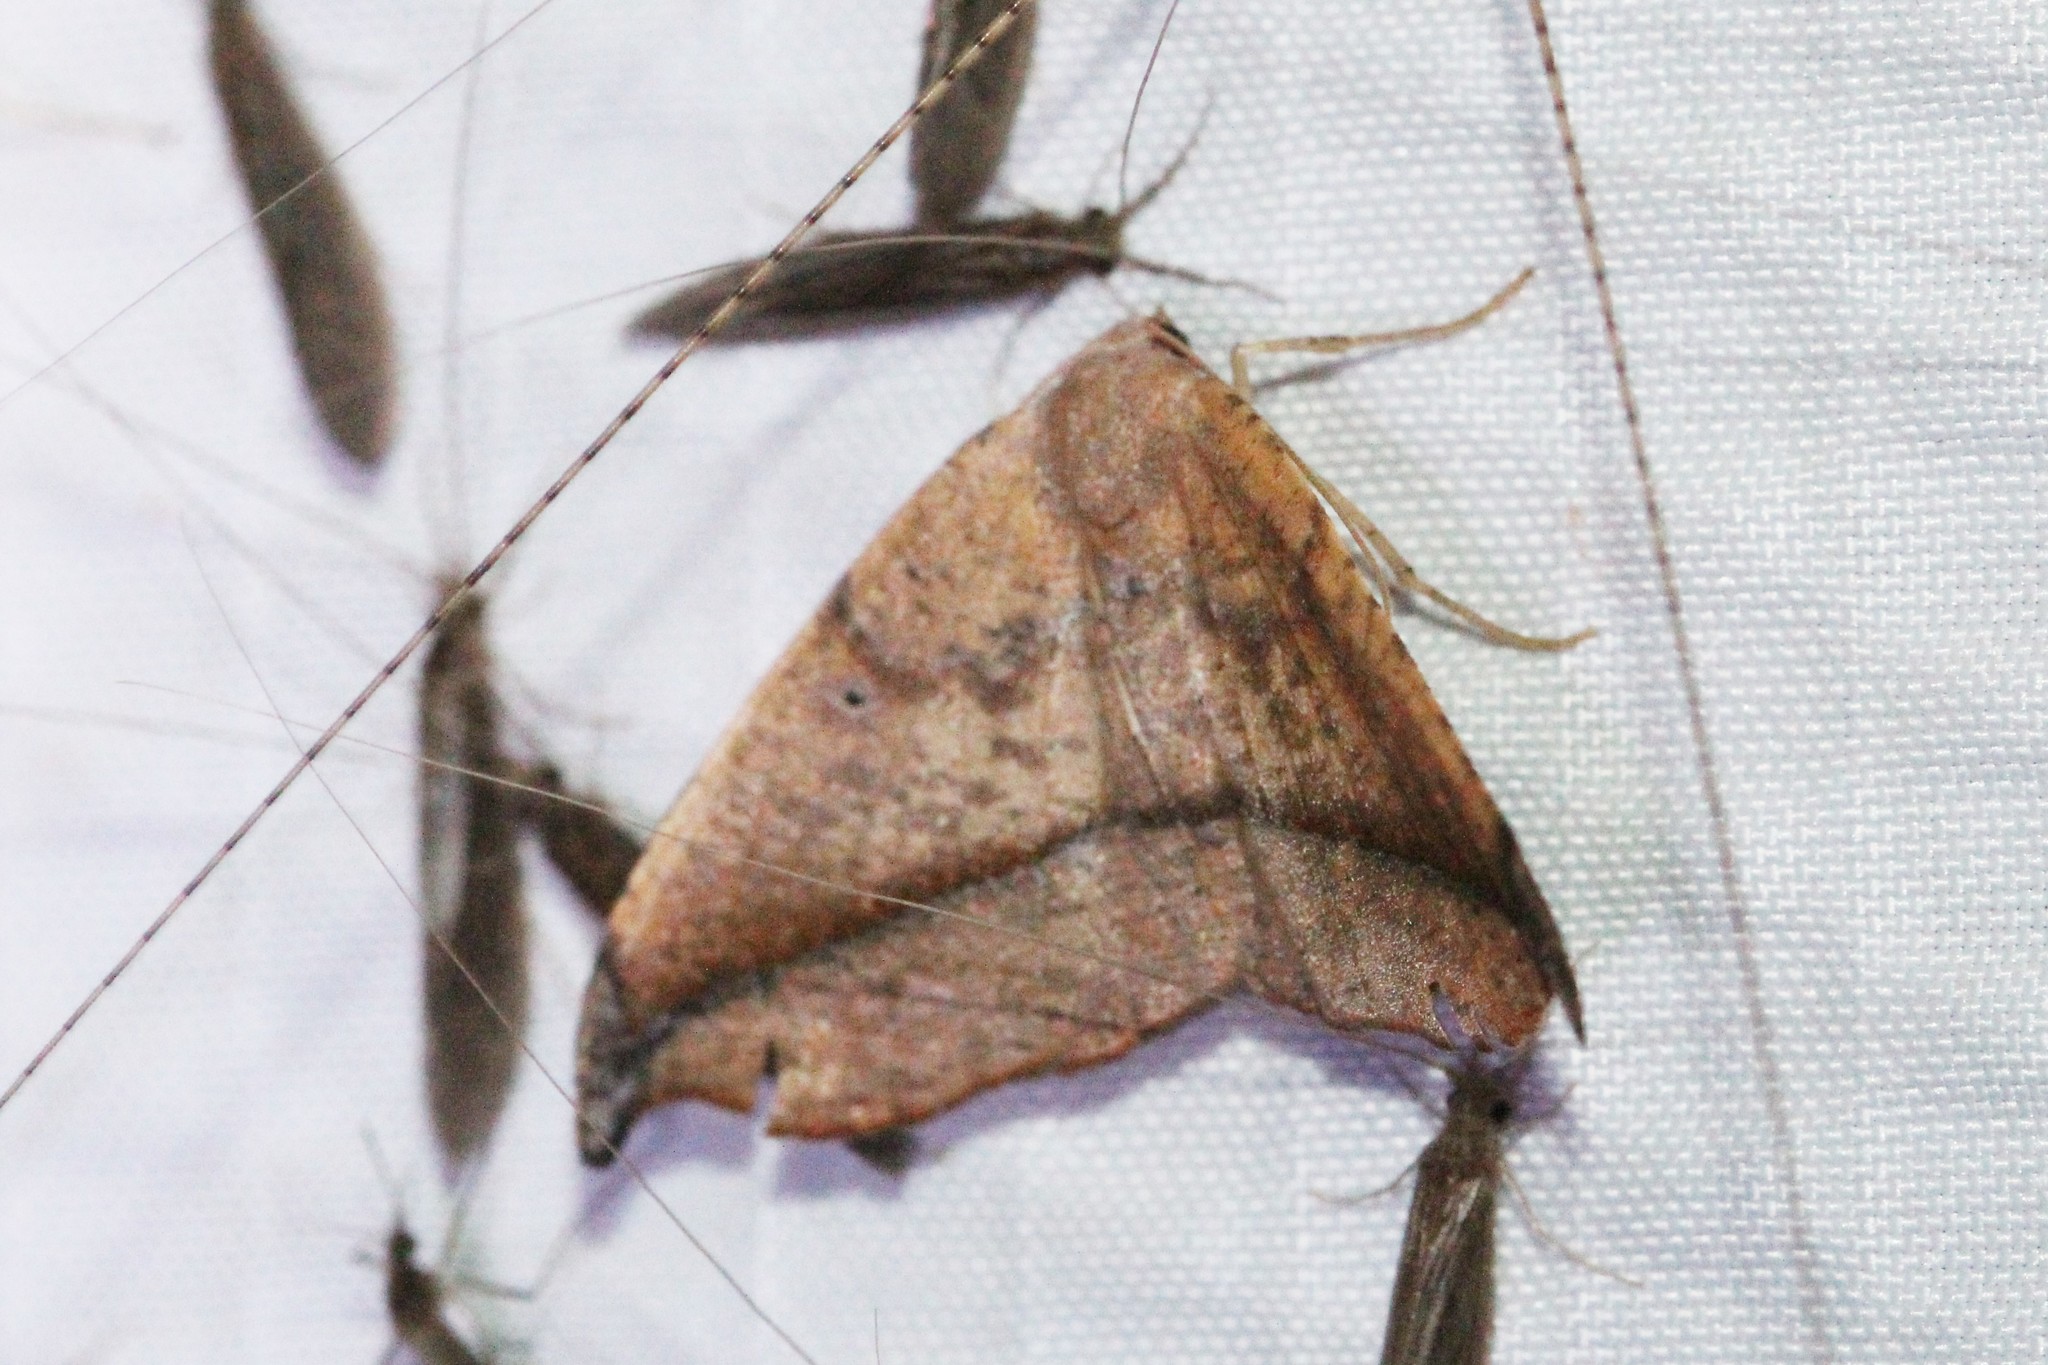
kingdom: Animalia
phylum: Arthropoda
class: Insecta
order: Lepidoptera
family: Geometridae
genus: Patalene
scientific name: Patalene olyzonaria
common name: Juniper geometer moth
